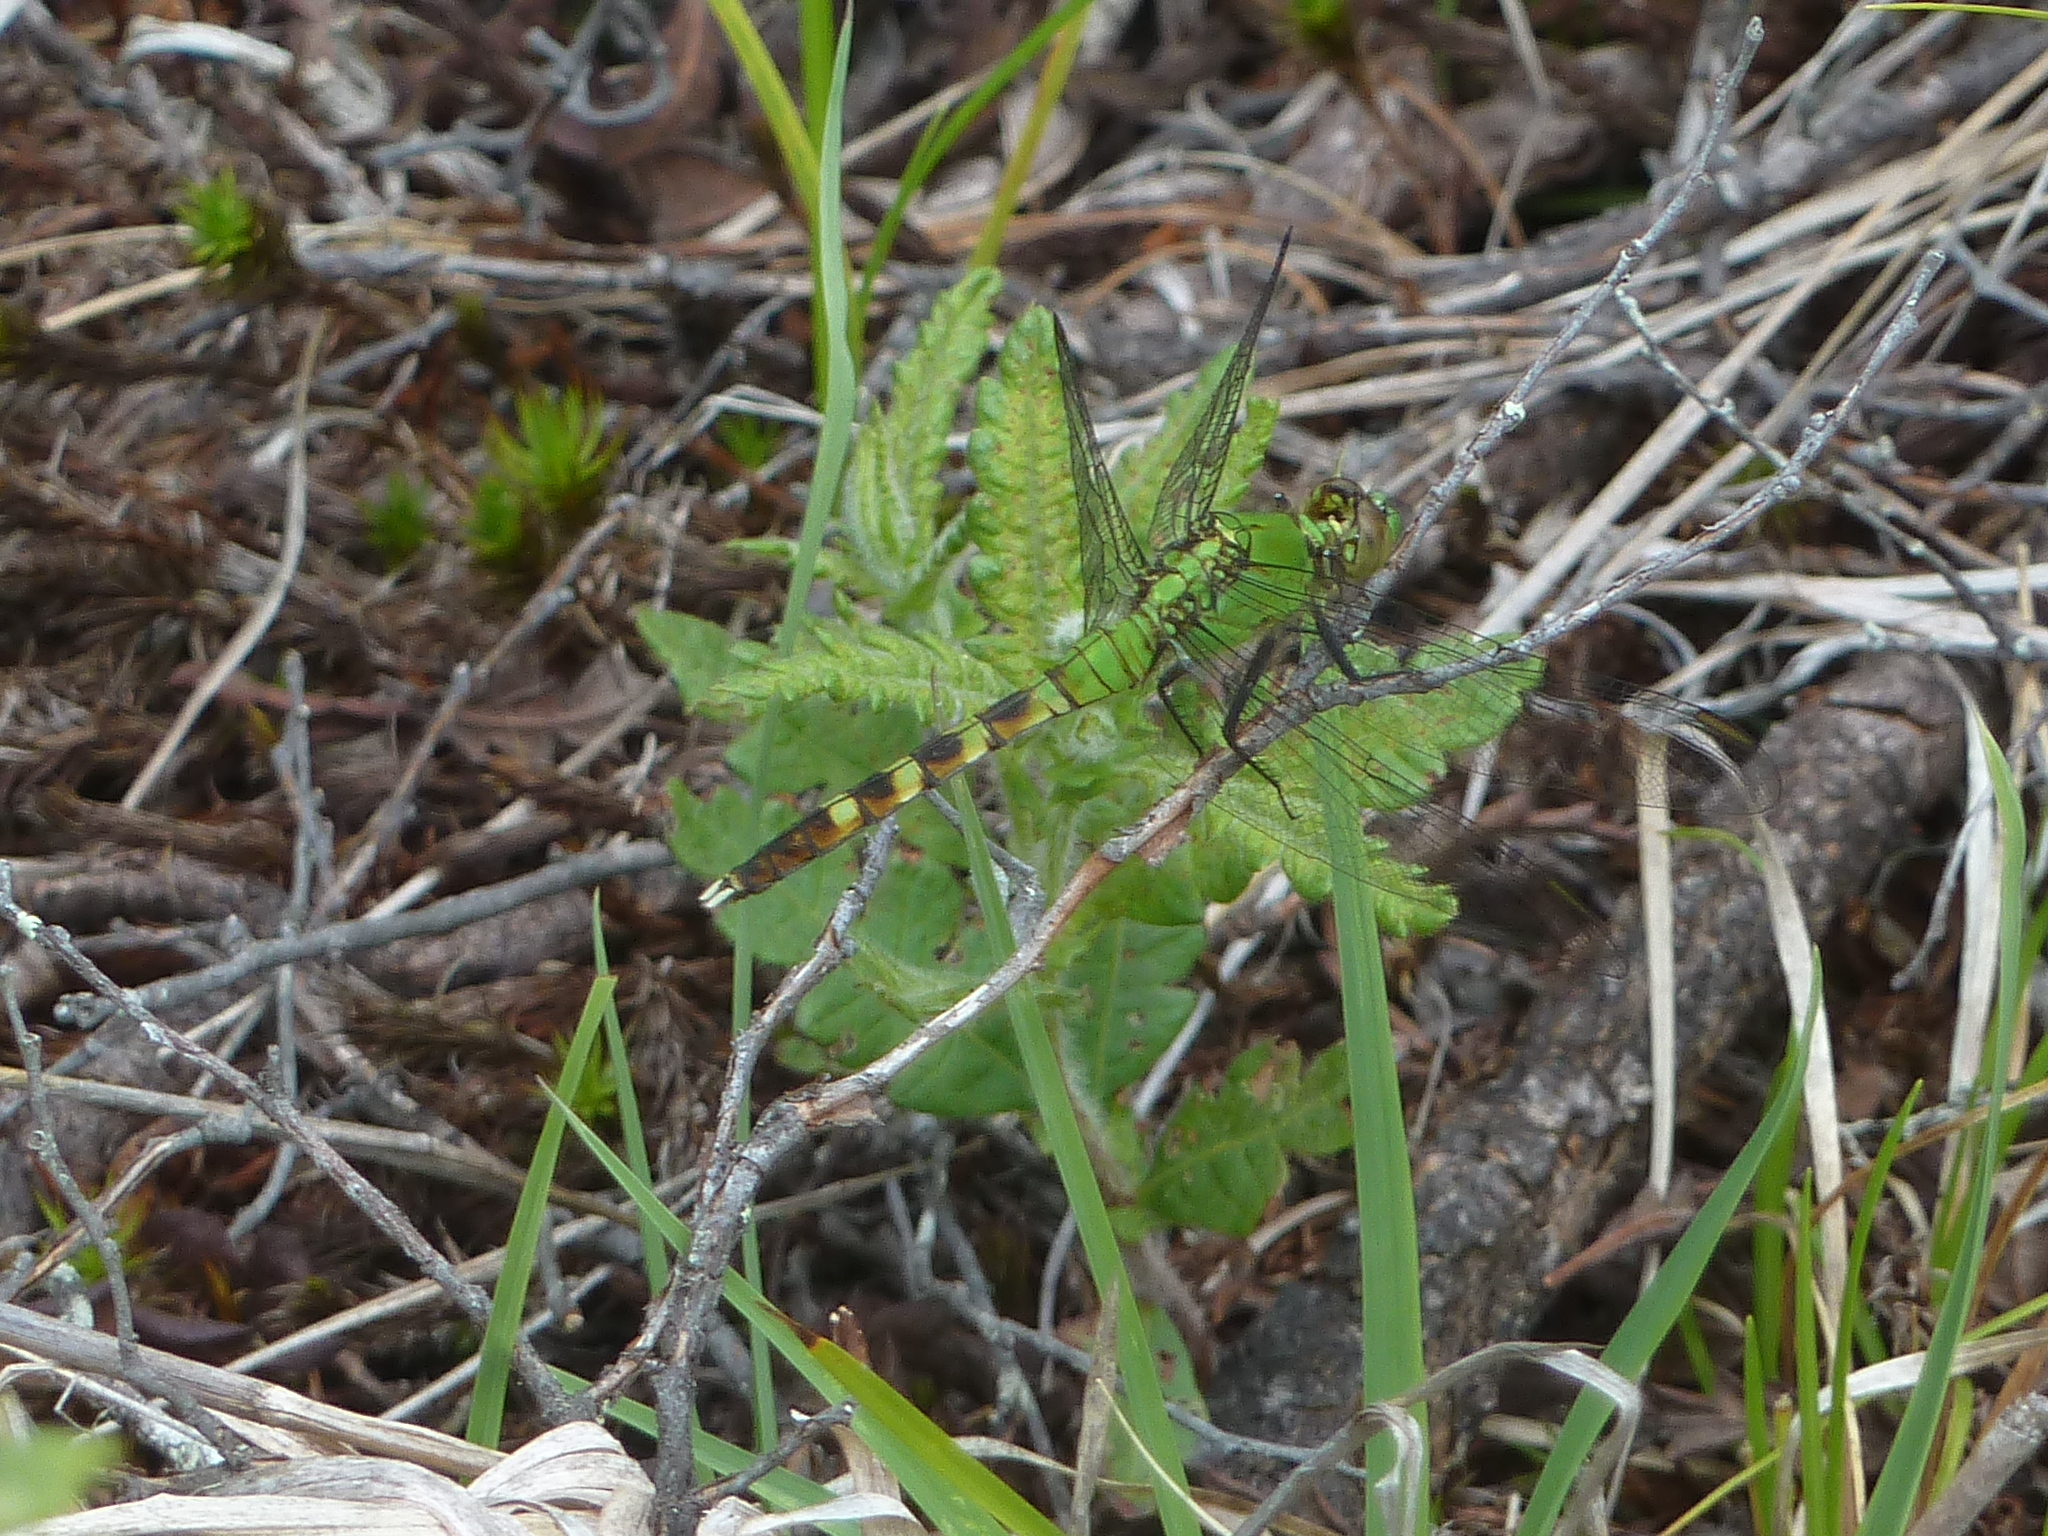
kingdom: Animalia
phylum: Arthropoda
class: Insecta
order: Odonata
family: Libellulidae
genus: Erythemis
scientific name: Erythemis simplicicollis
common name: Eastern pondhawk
